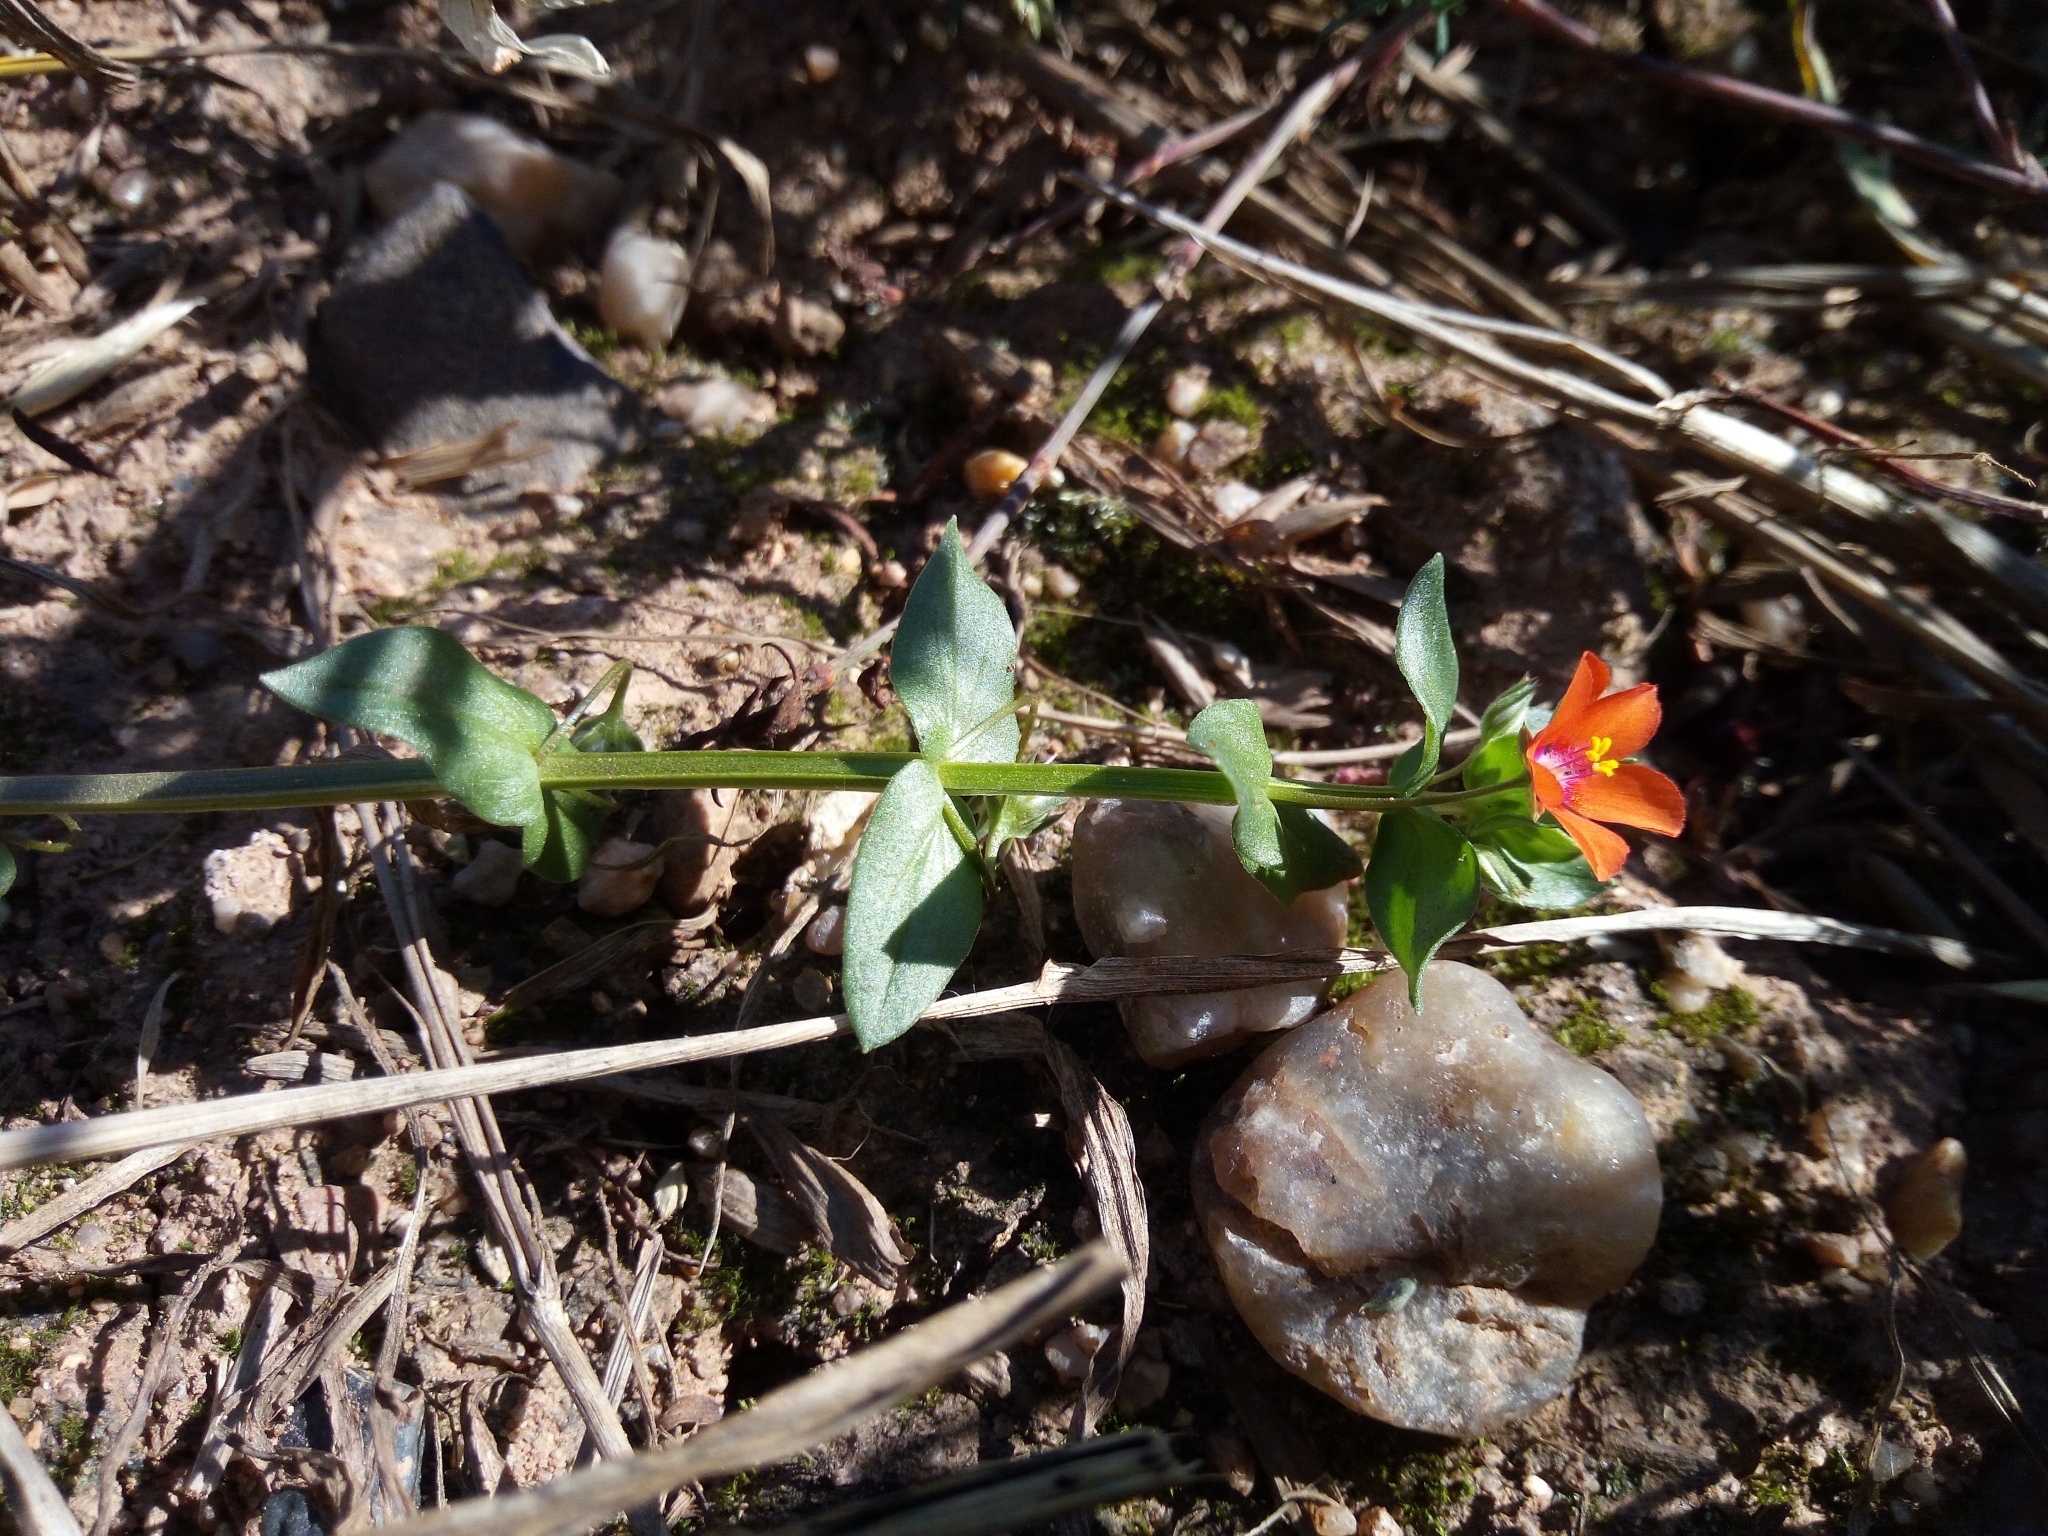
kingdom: Plantae
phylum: Tracheophyta
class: Magnoliopsida
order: Ericales
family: Primulaceae
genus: Lysimachia
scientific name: Lysimachia arvensis
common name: Scarlet pimpernel
